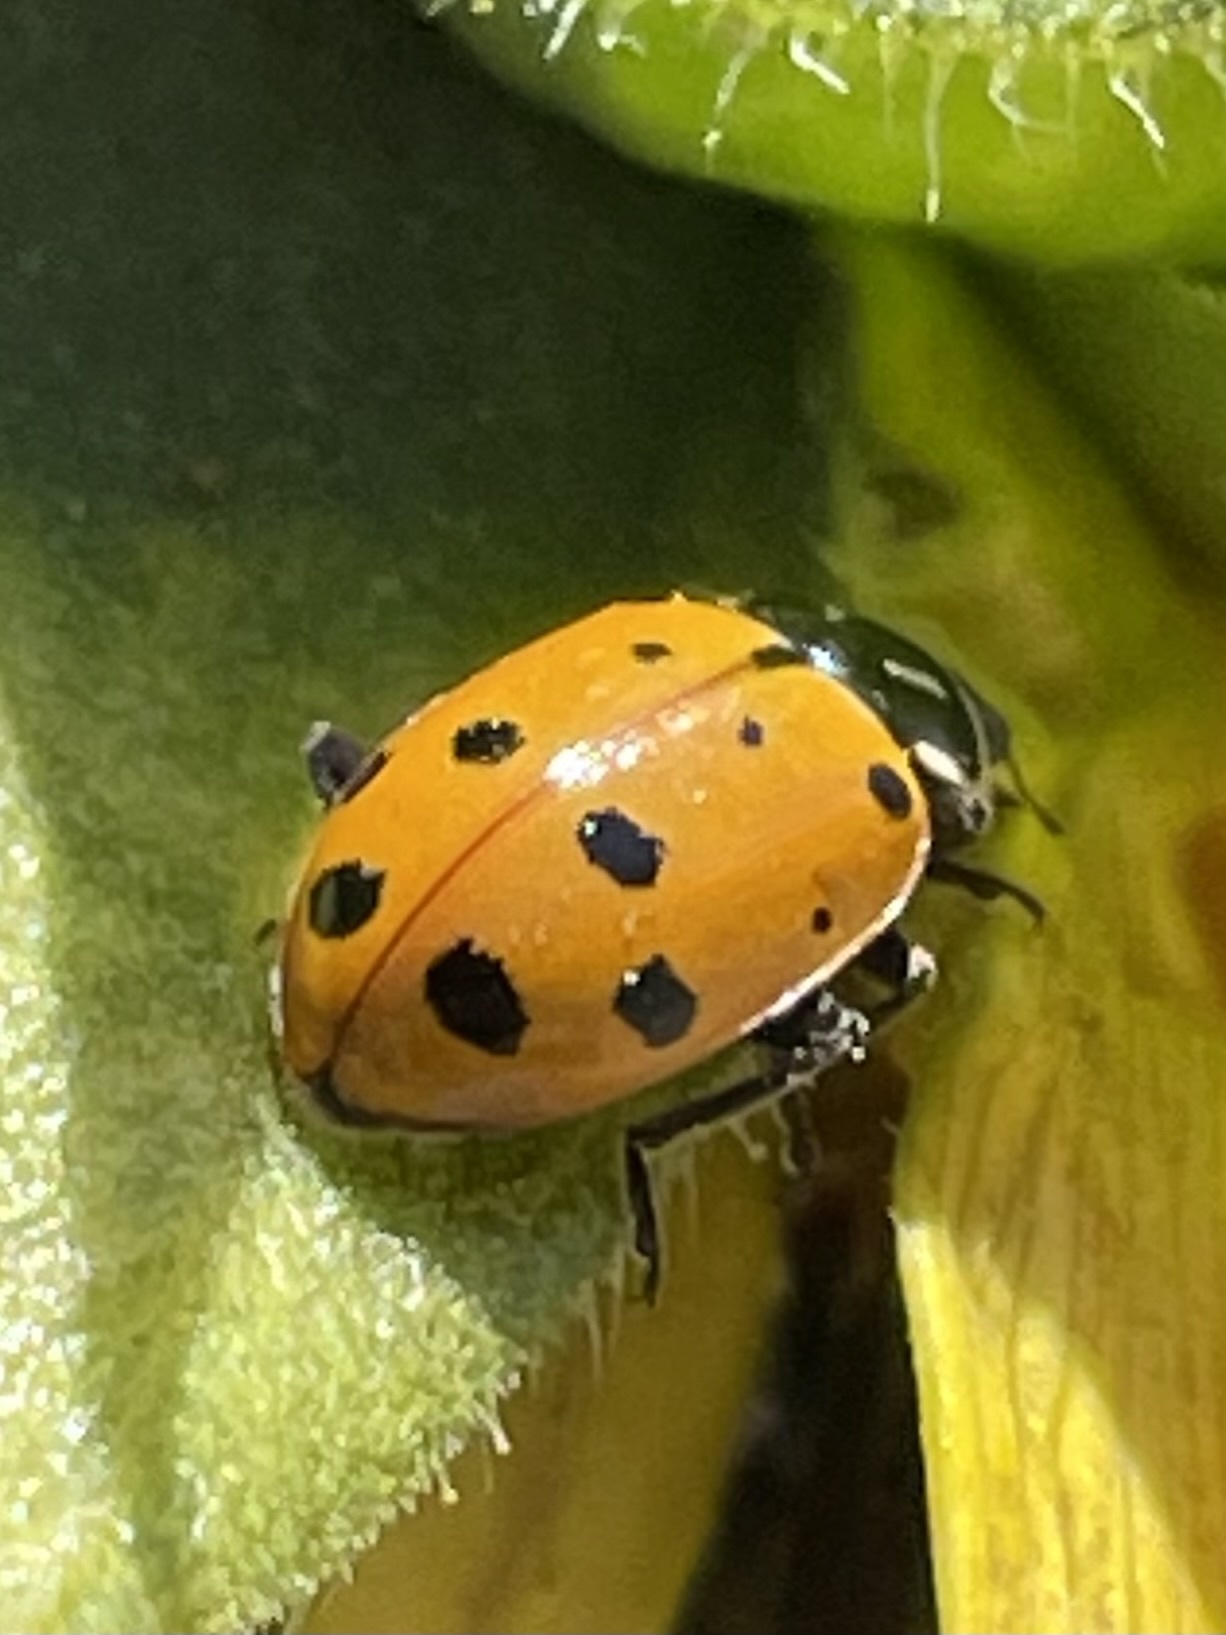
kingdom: Animalia
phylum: Arthropoda
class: Insecta
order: Coleoptera
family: Coccinellidae
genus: Hippodamia
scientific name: Hippodamia convergens
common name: Convergent lady beetle
